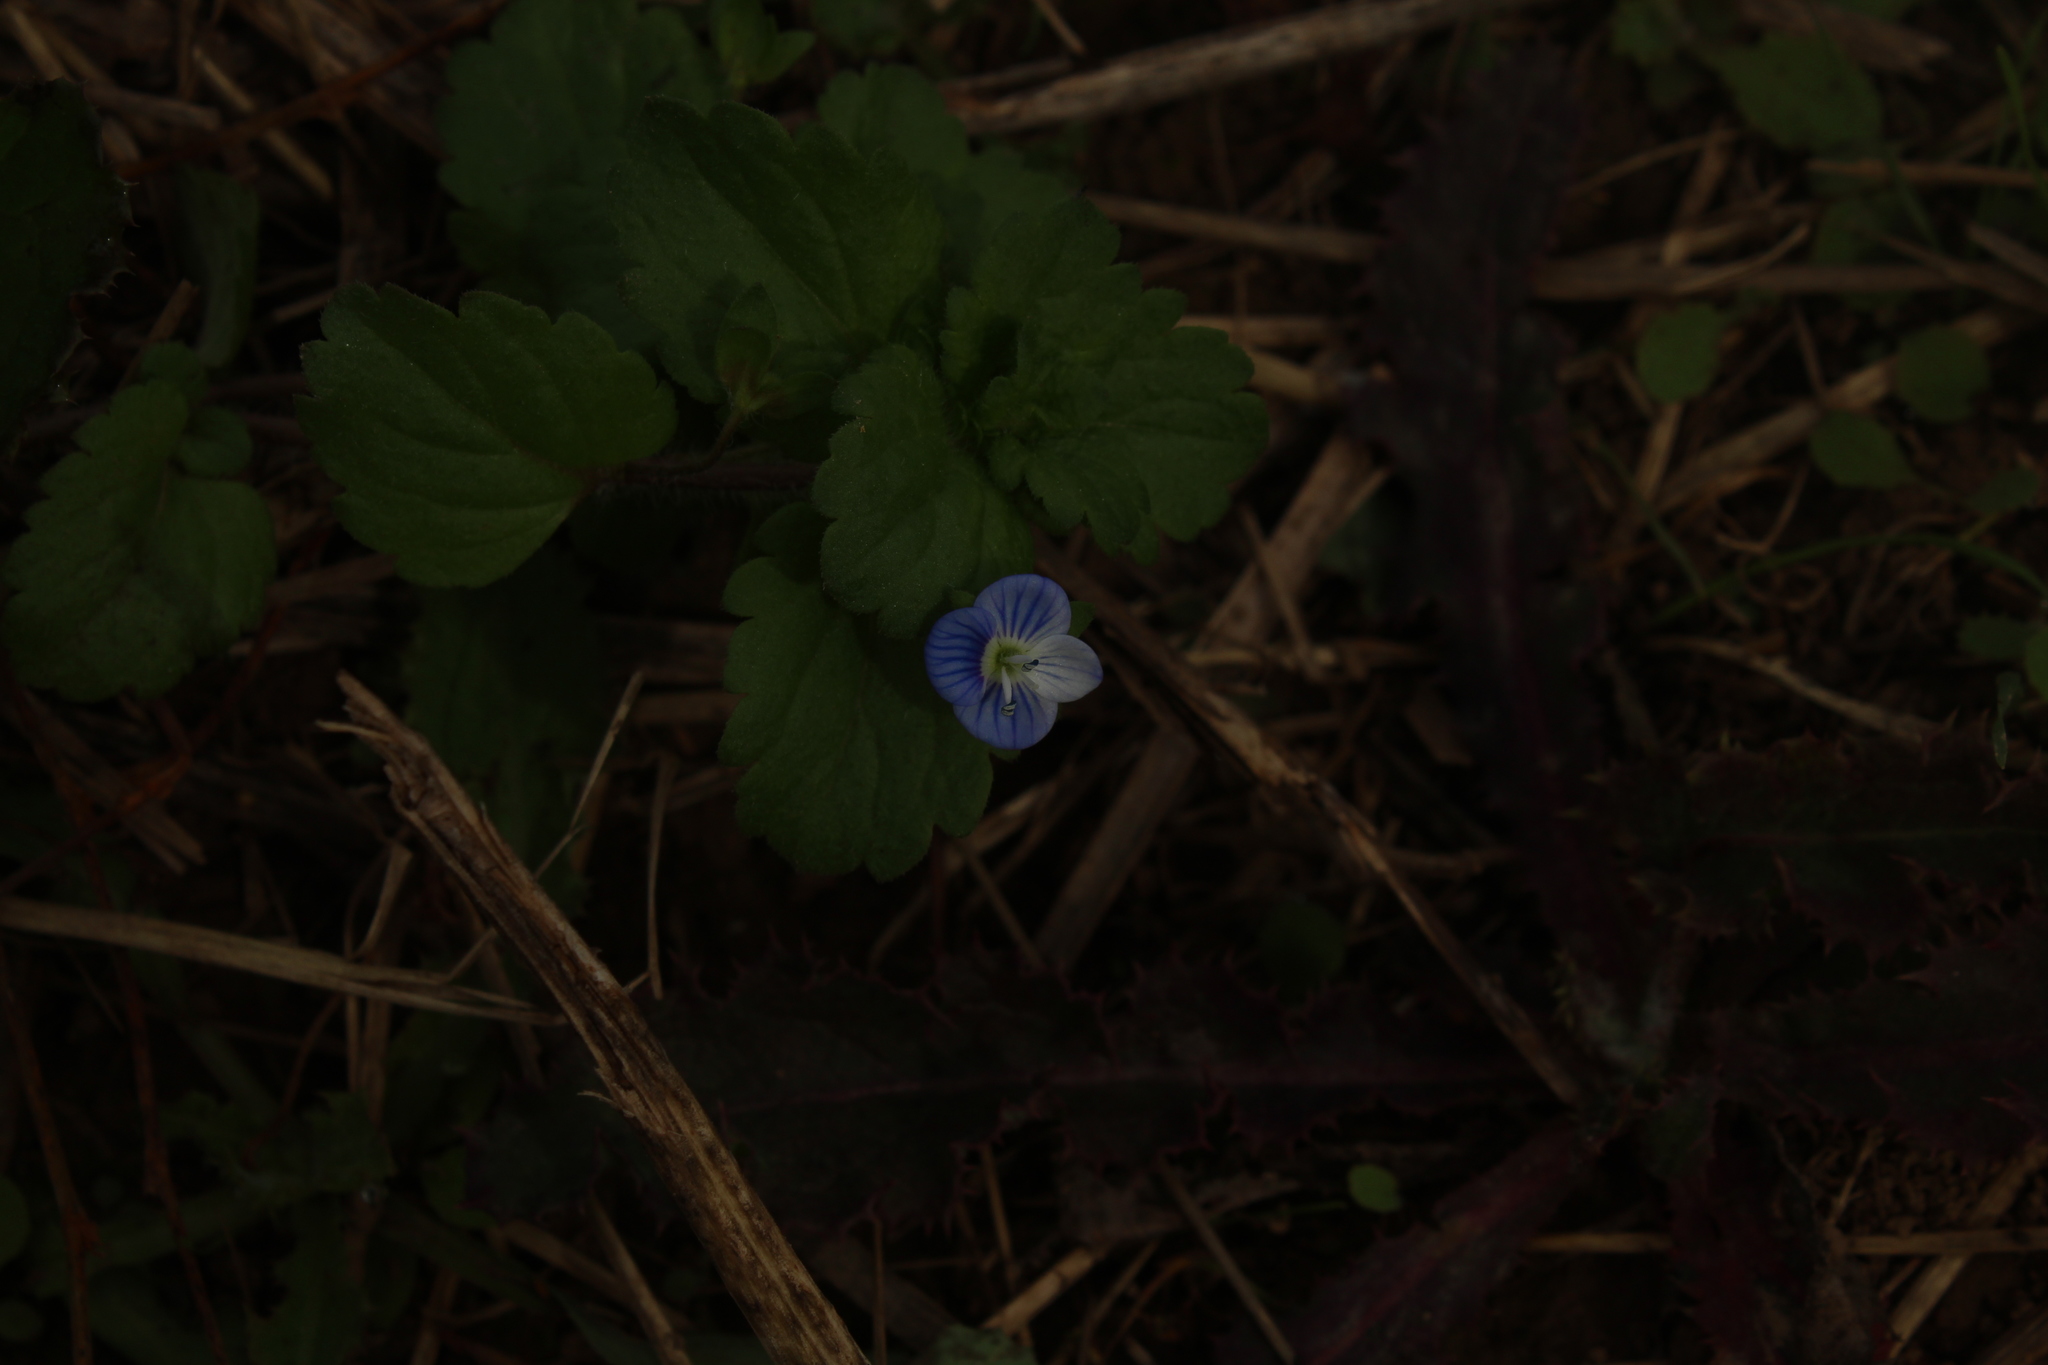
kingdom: Plantae
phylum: Tracheophyta
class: Magnoliopsida
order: Lamiales
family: Plantaginaceae
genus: Veronica
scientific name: Veronica persica
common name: Common field-speedwell
